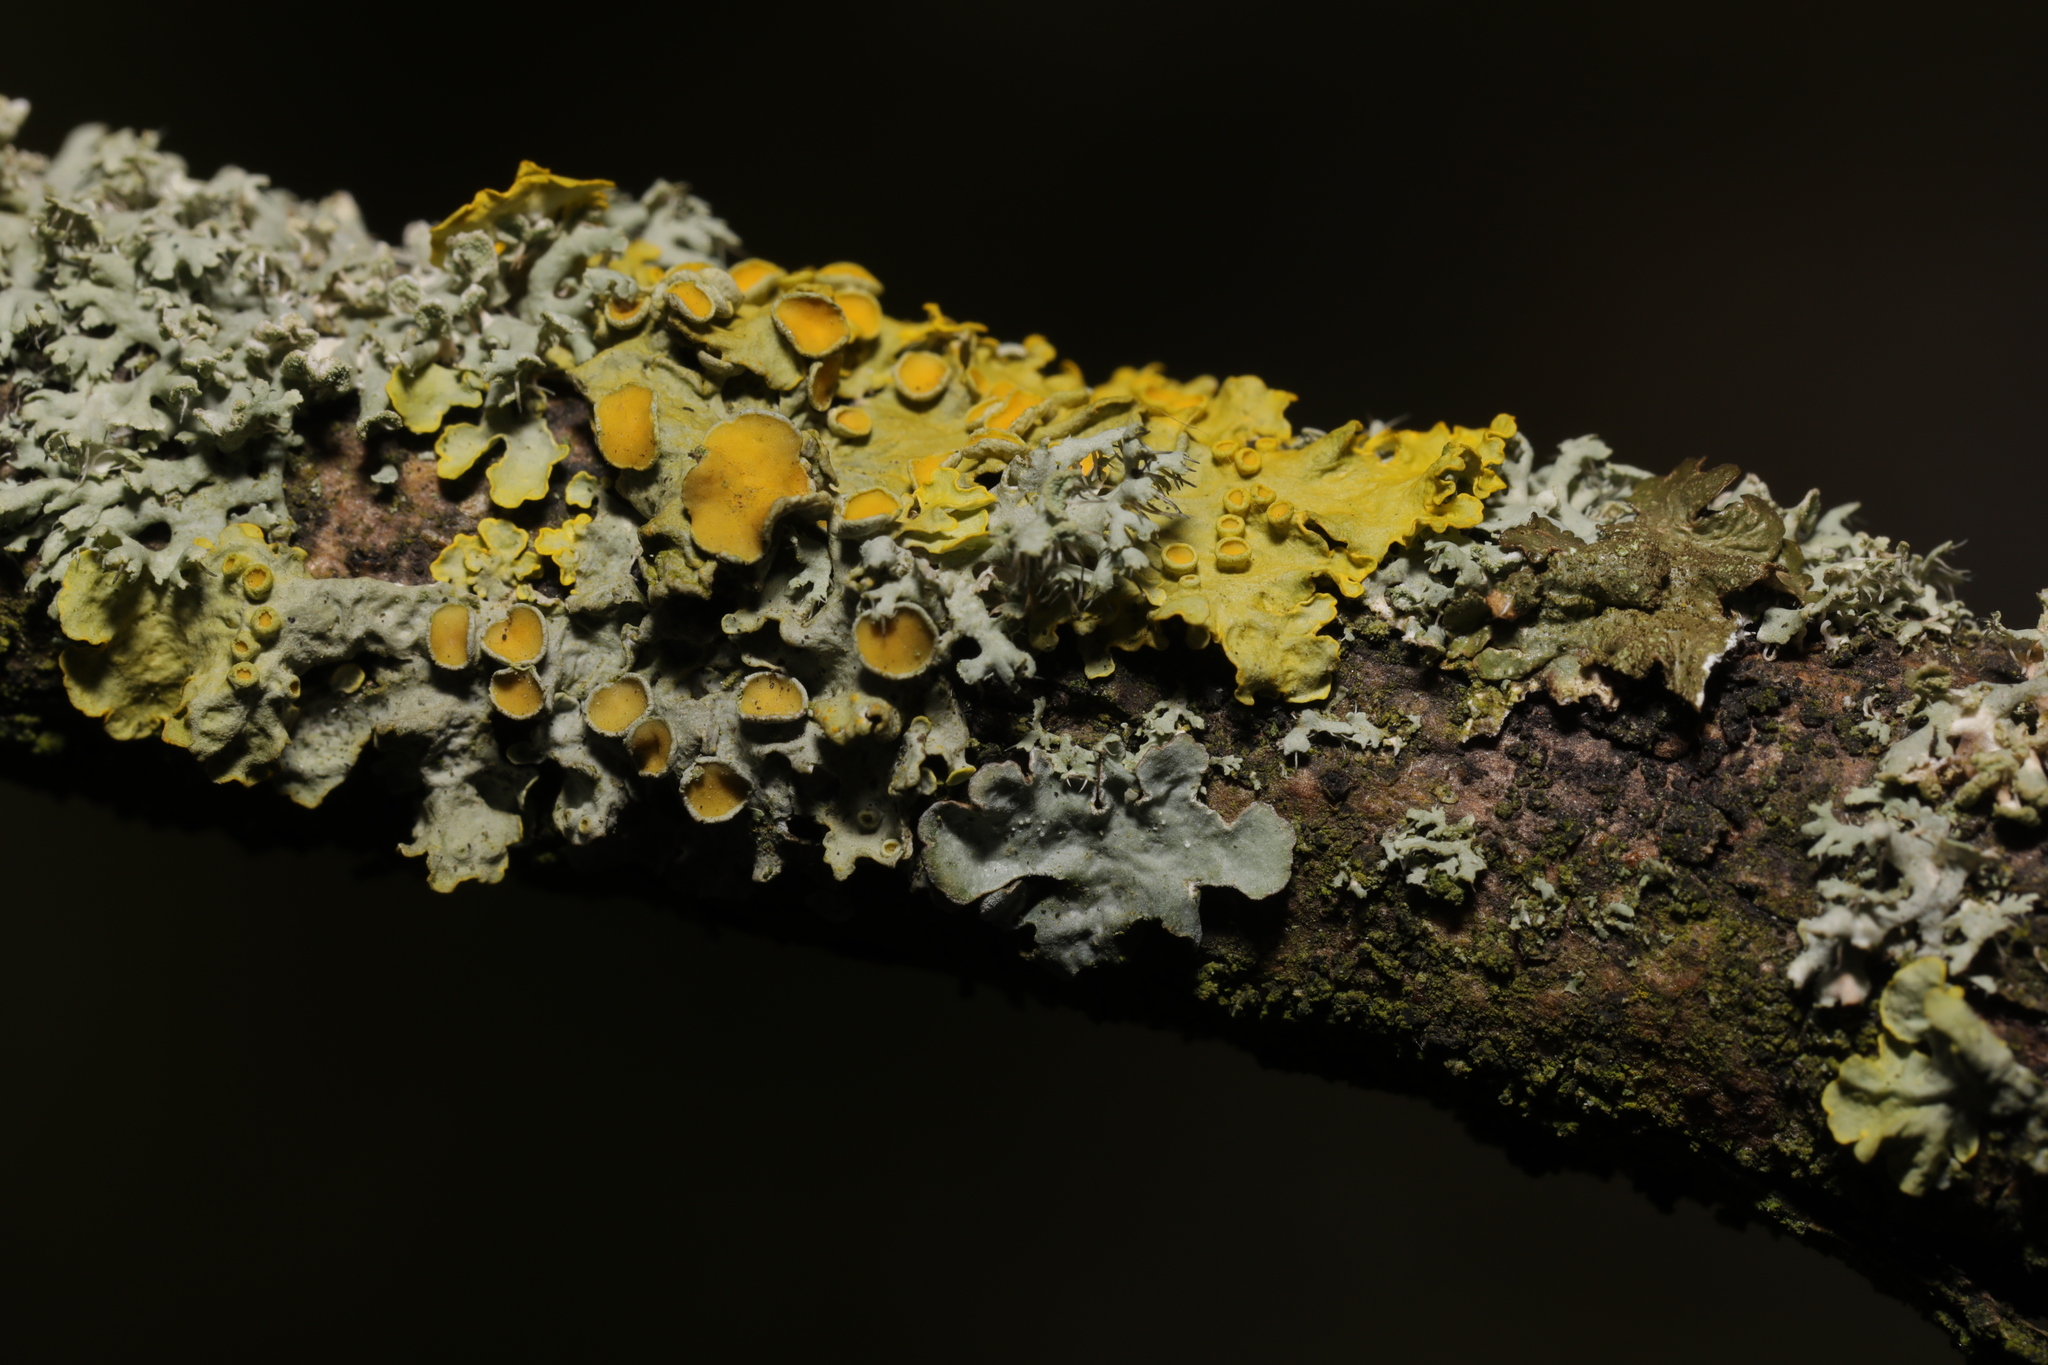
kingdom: Fungi
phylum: Ascomycota
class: Lecanoromycetes
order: Teloschistales
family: Teloschistaceae
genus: Xanthoria
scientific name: Xanthoria parietina
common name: Common orange lichen
